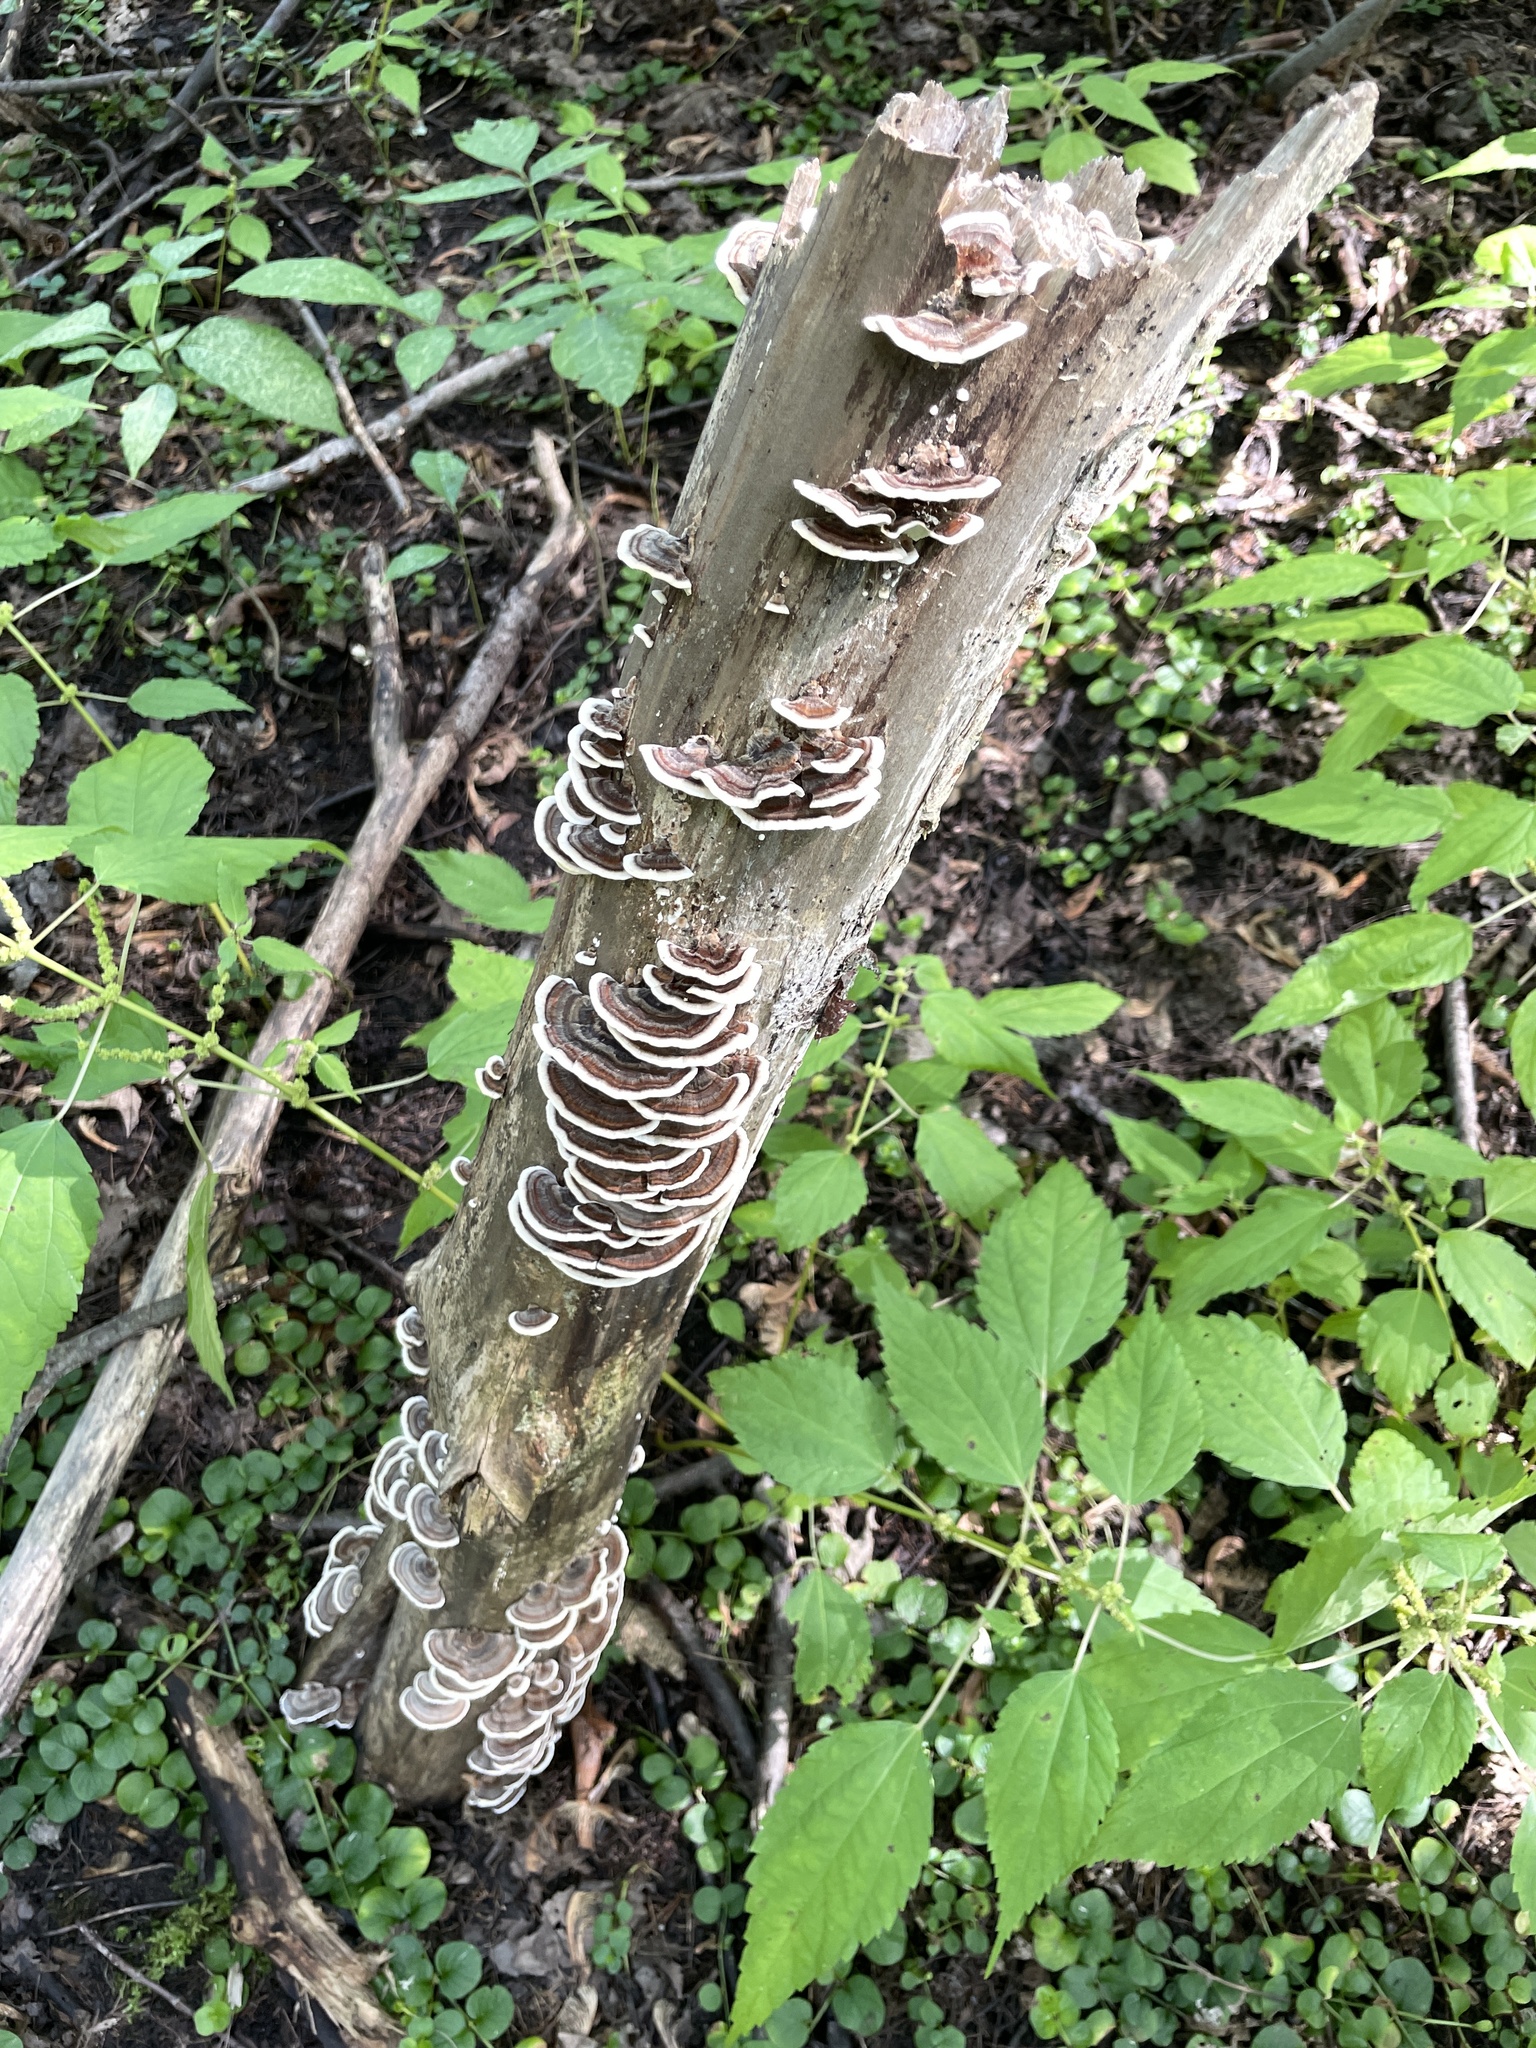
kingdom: Fungi
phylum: Basidiomycota
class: Agaricomycetes
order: Polyporales
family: Polyporaceae
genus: Trametes
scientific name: Trametes versicolor
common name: Turkeytail
